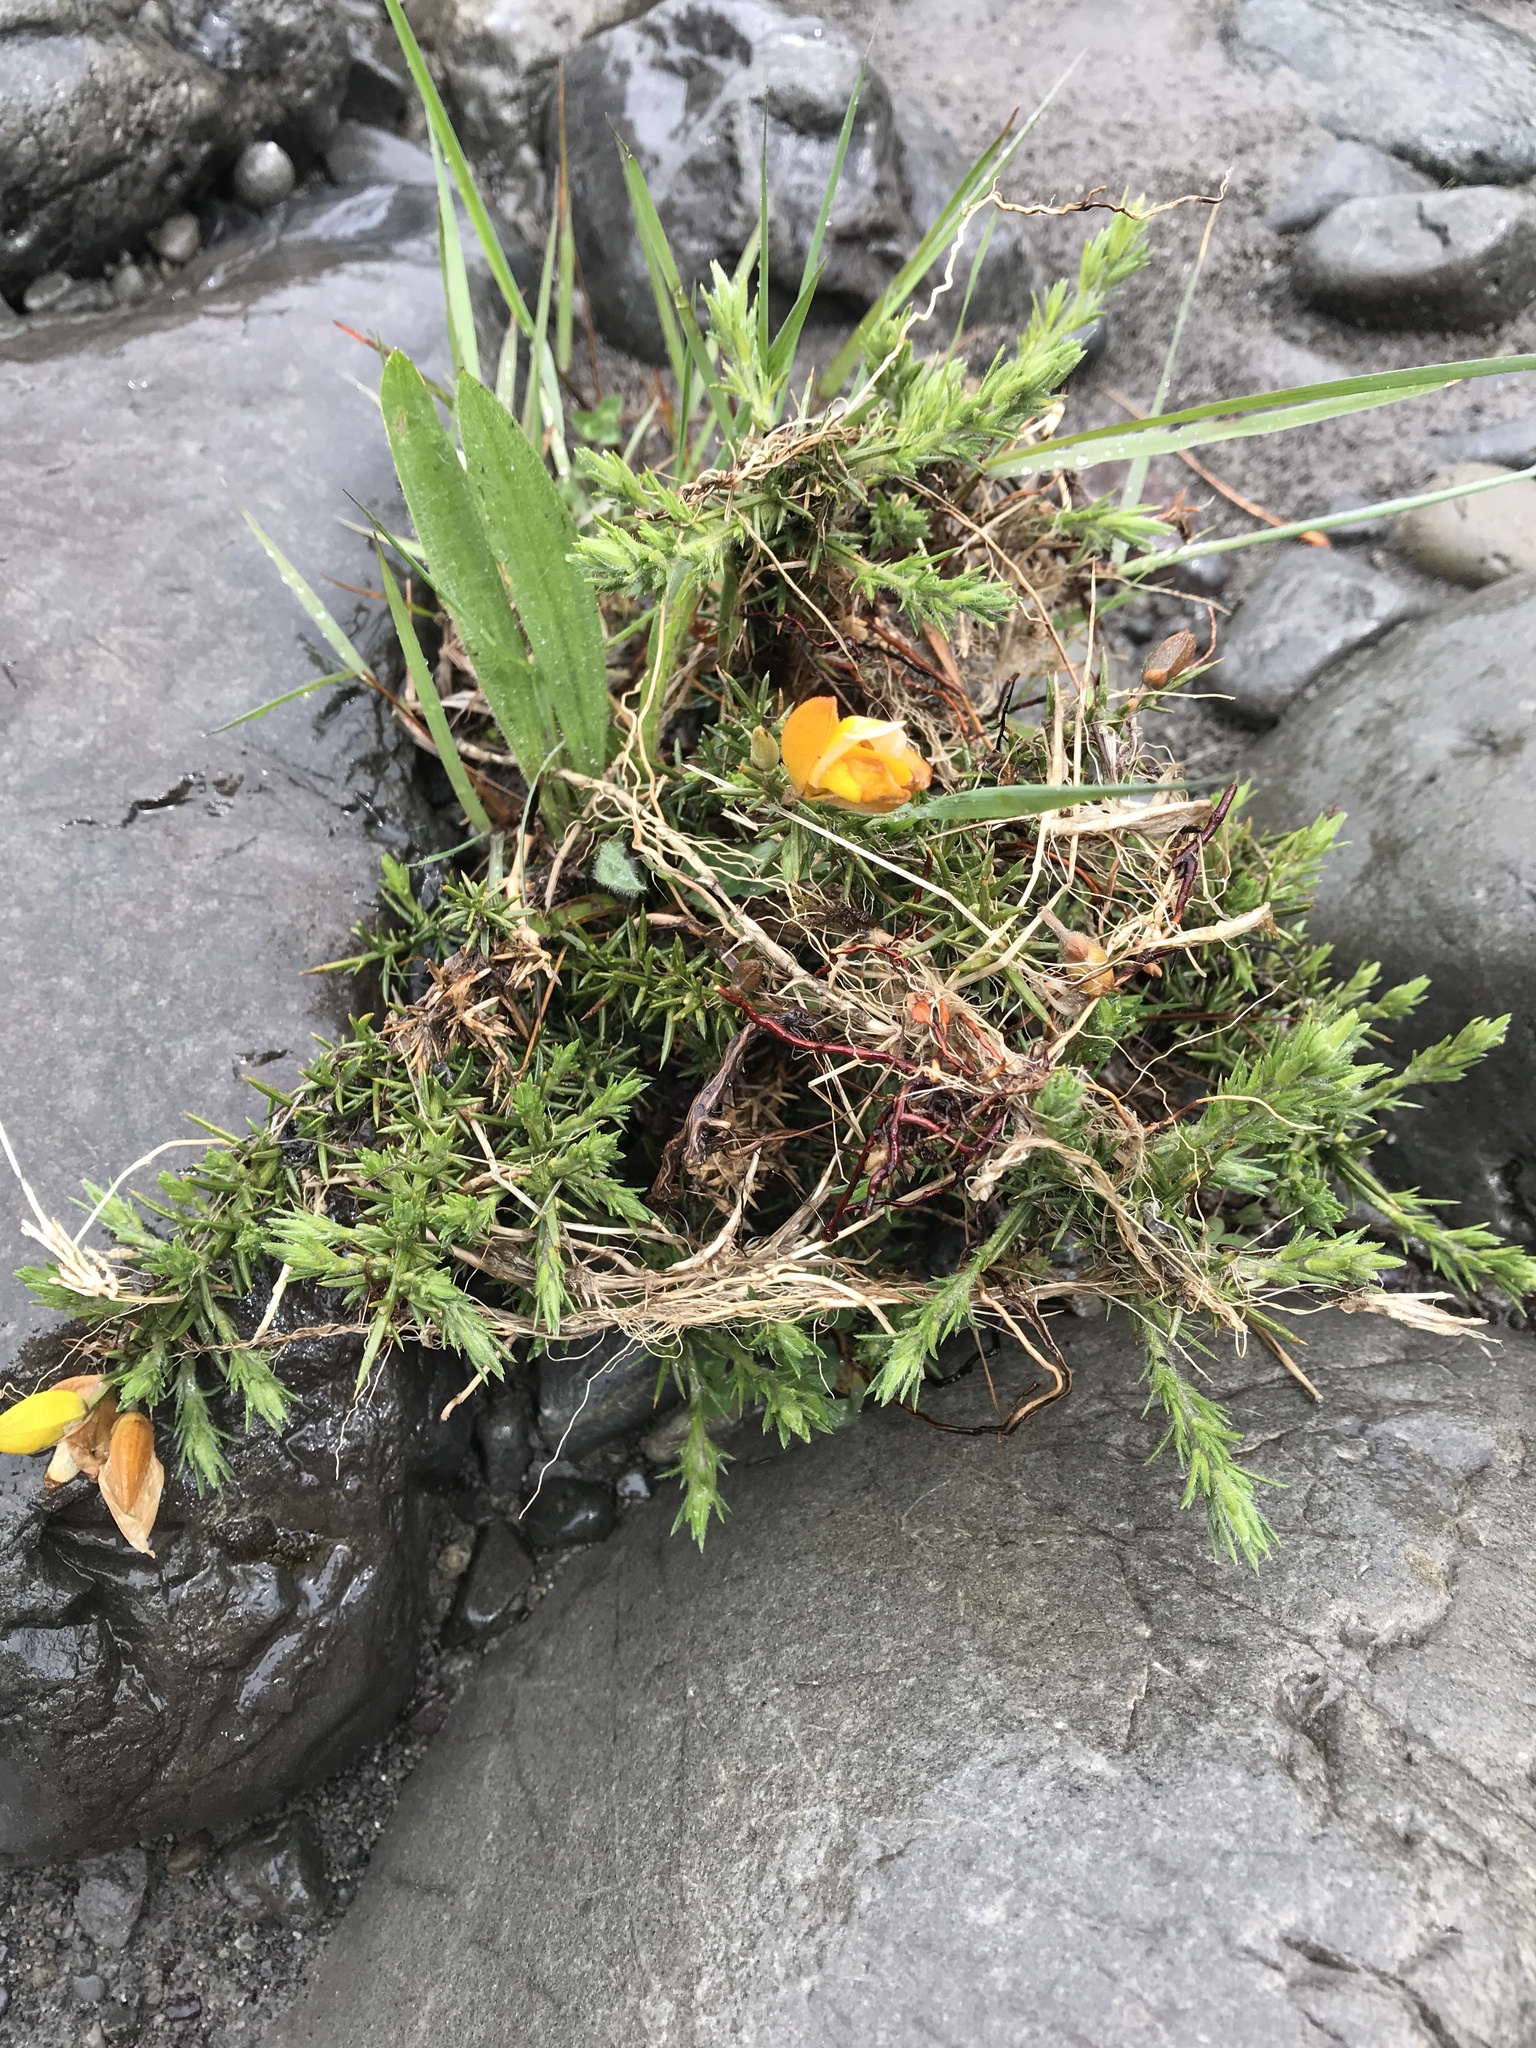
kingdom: Plantae
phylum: Tracheophyta
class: Magnoliopsida
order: Fabales
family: Fabaceae
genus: Ulex
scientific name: Ulex europaeus
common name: Common gorse
